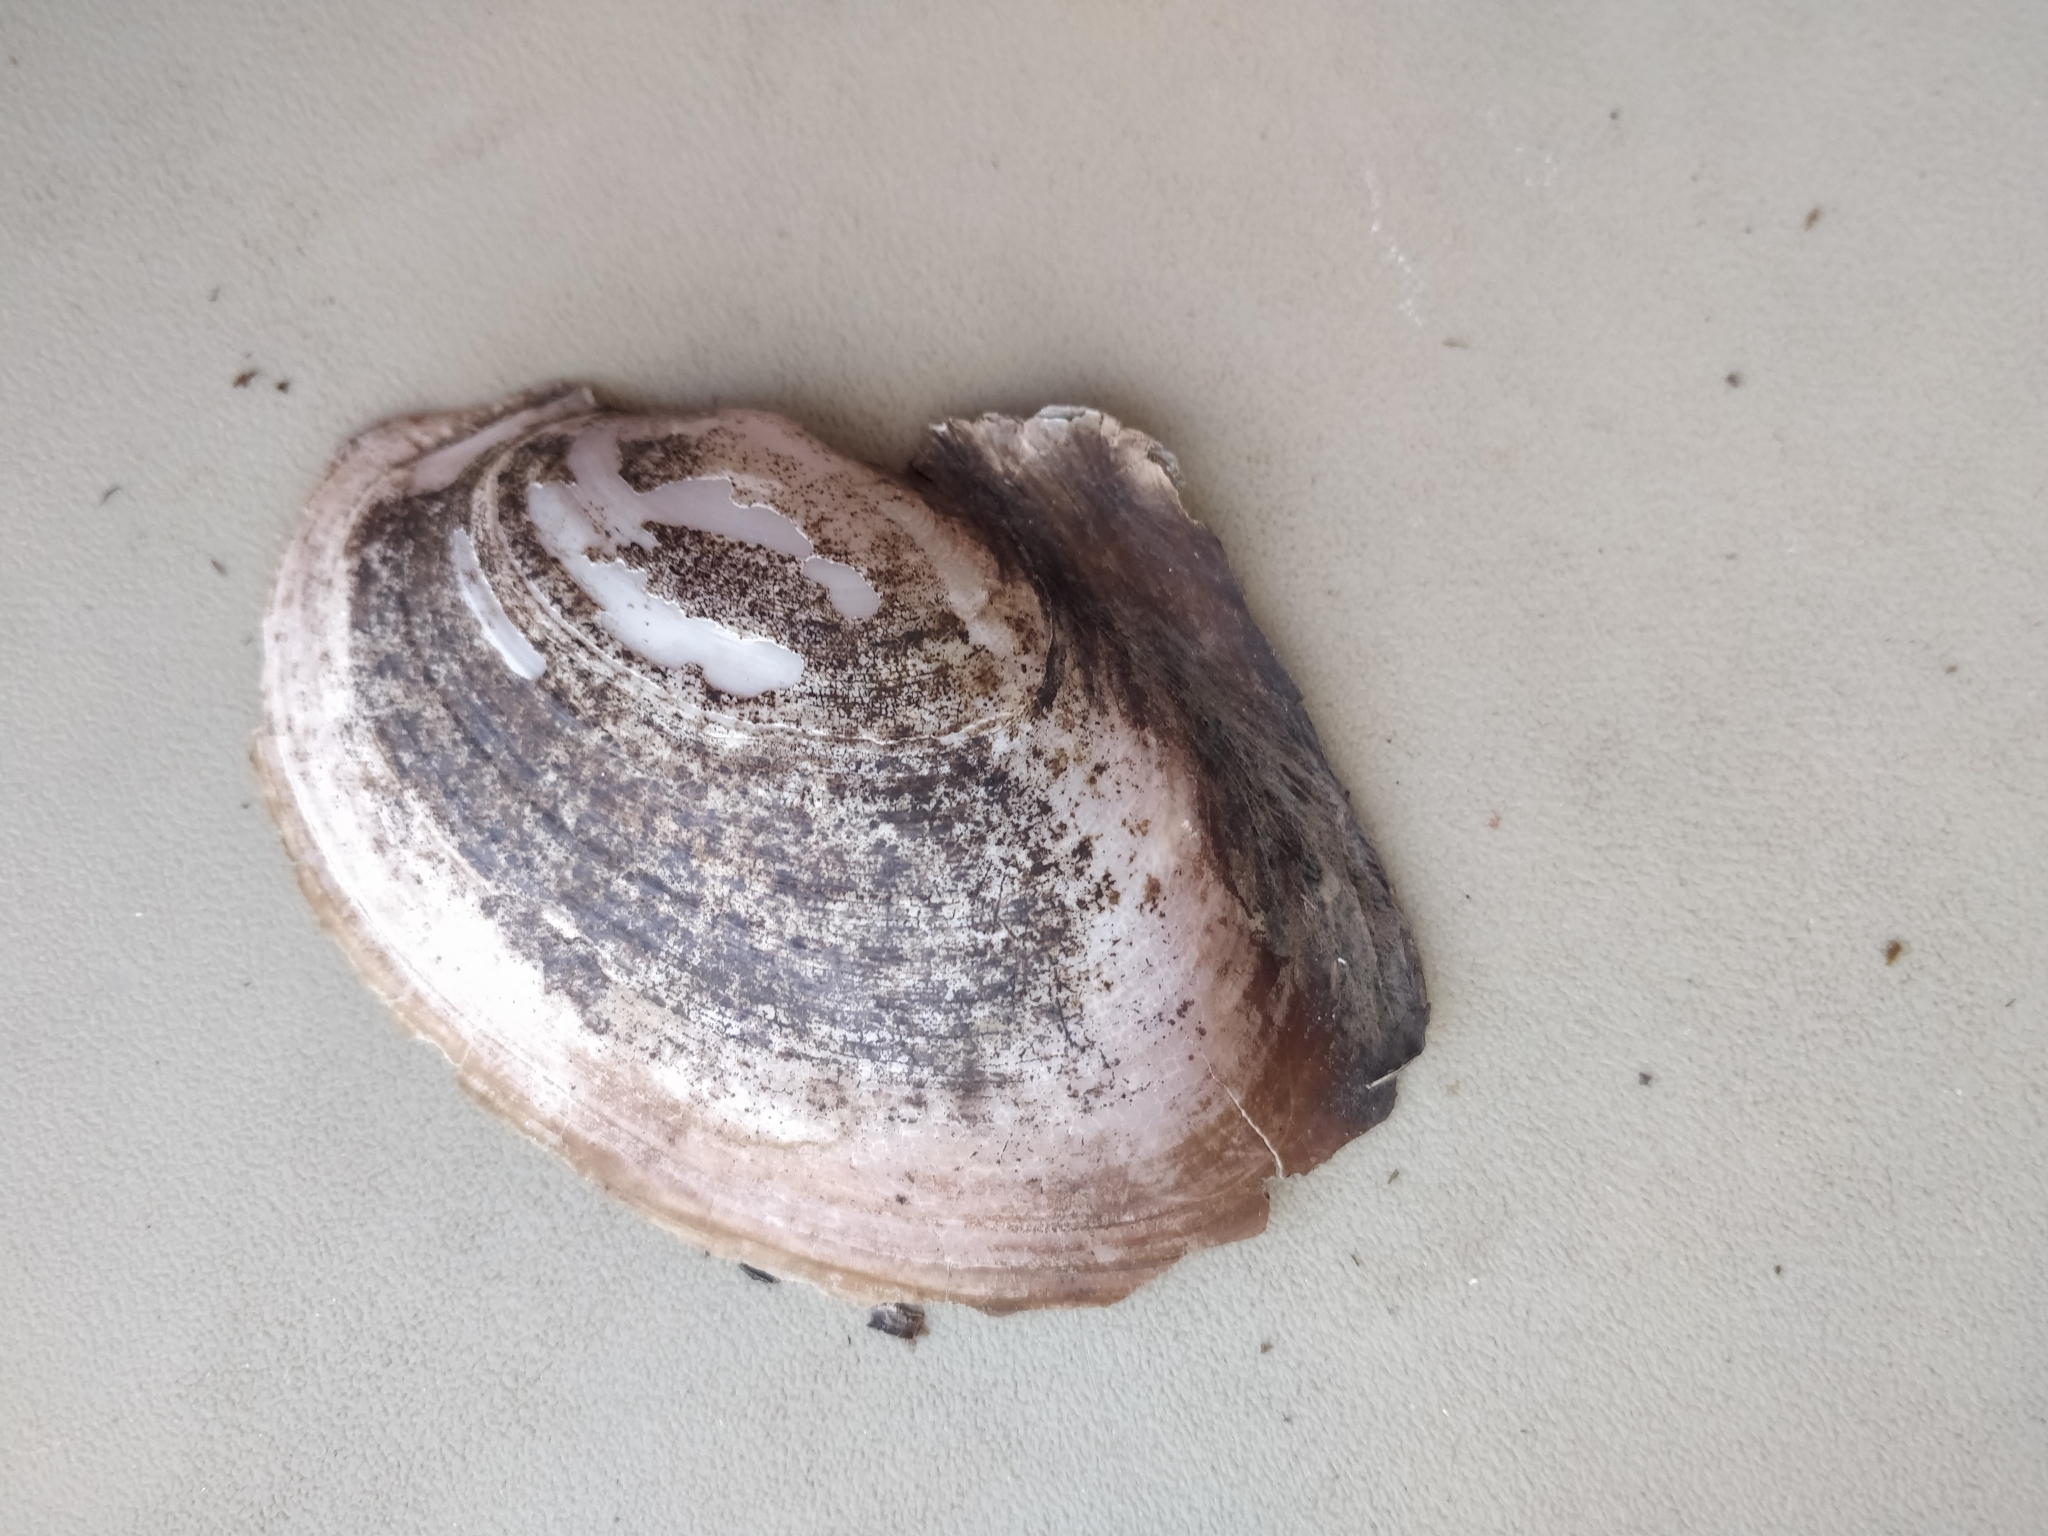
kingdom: Animalia
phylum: Mollusca
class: Bivalvia
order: Unionida
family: Unionidae
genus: Potamilus
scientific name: Potamilus ohiensis
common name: Pink papershell
